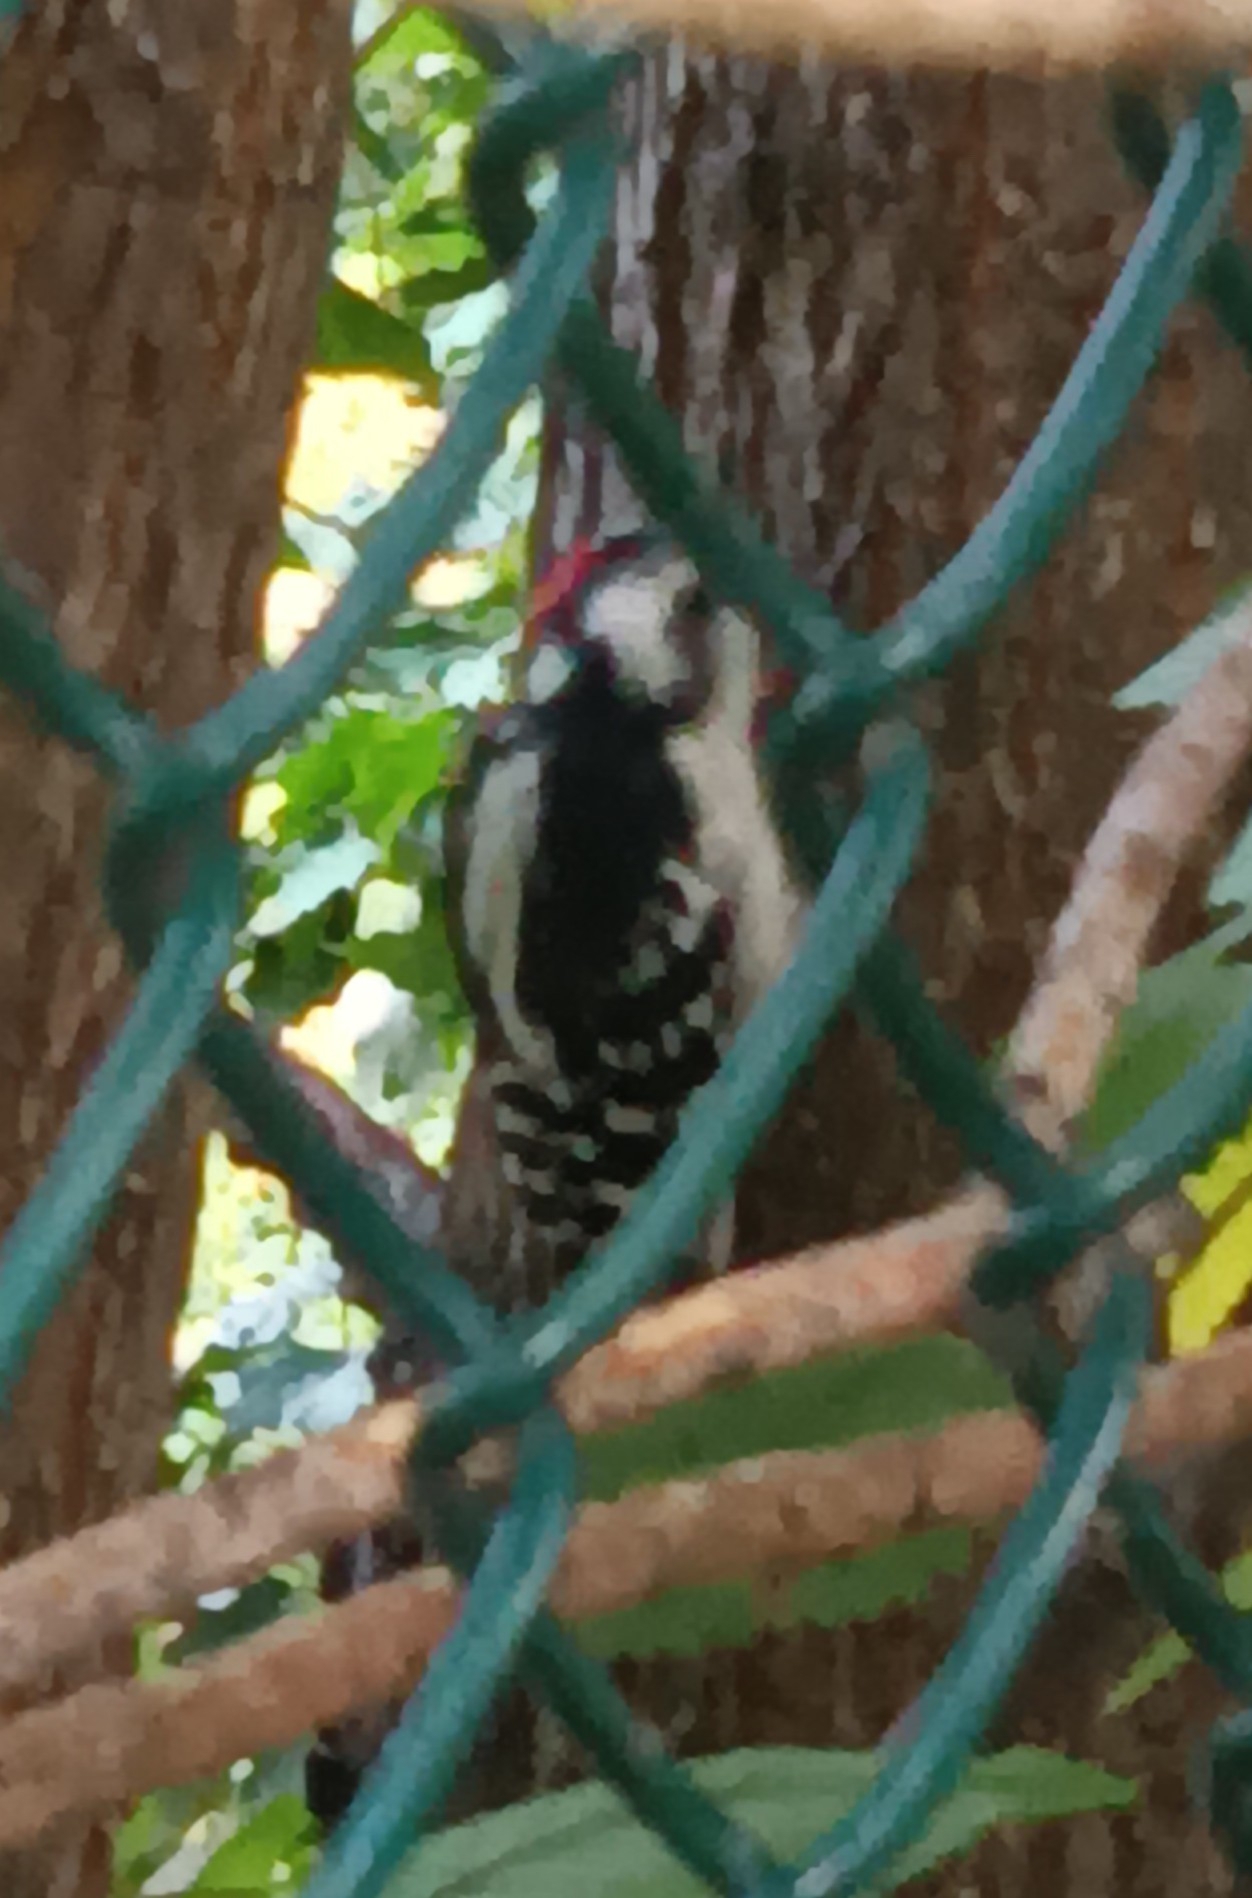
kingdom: Animalia
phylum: Chordata
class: Aves
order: Piciformes
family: Picidae
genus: Dryobates
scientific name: Dryobates pubescens
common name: Downy woodpecker
